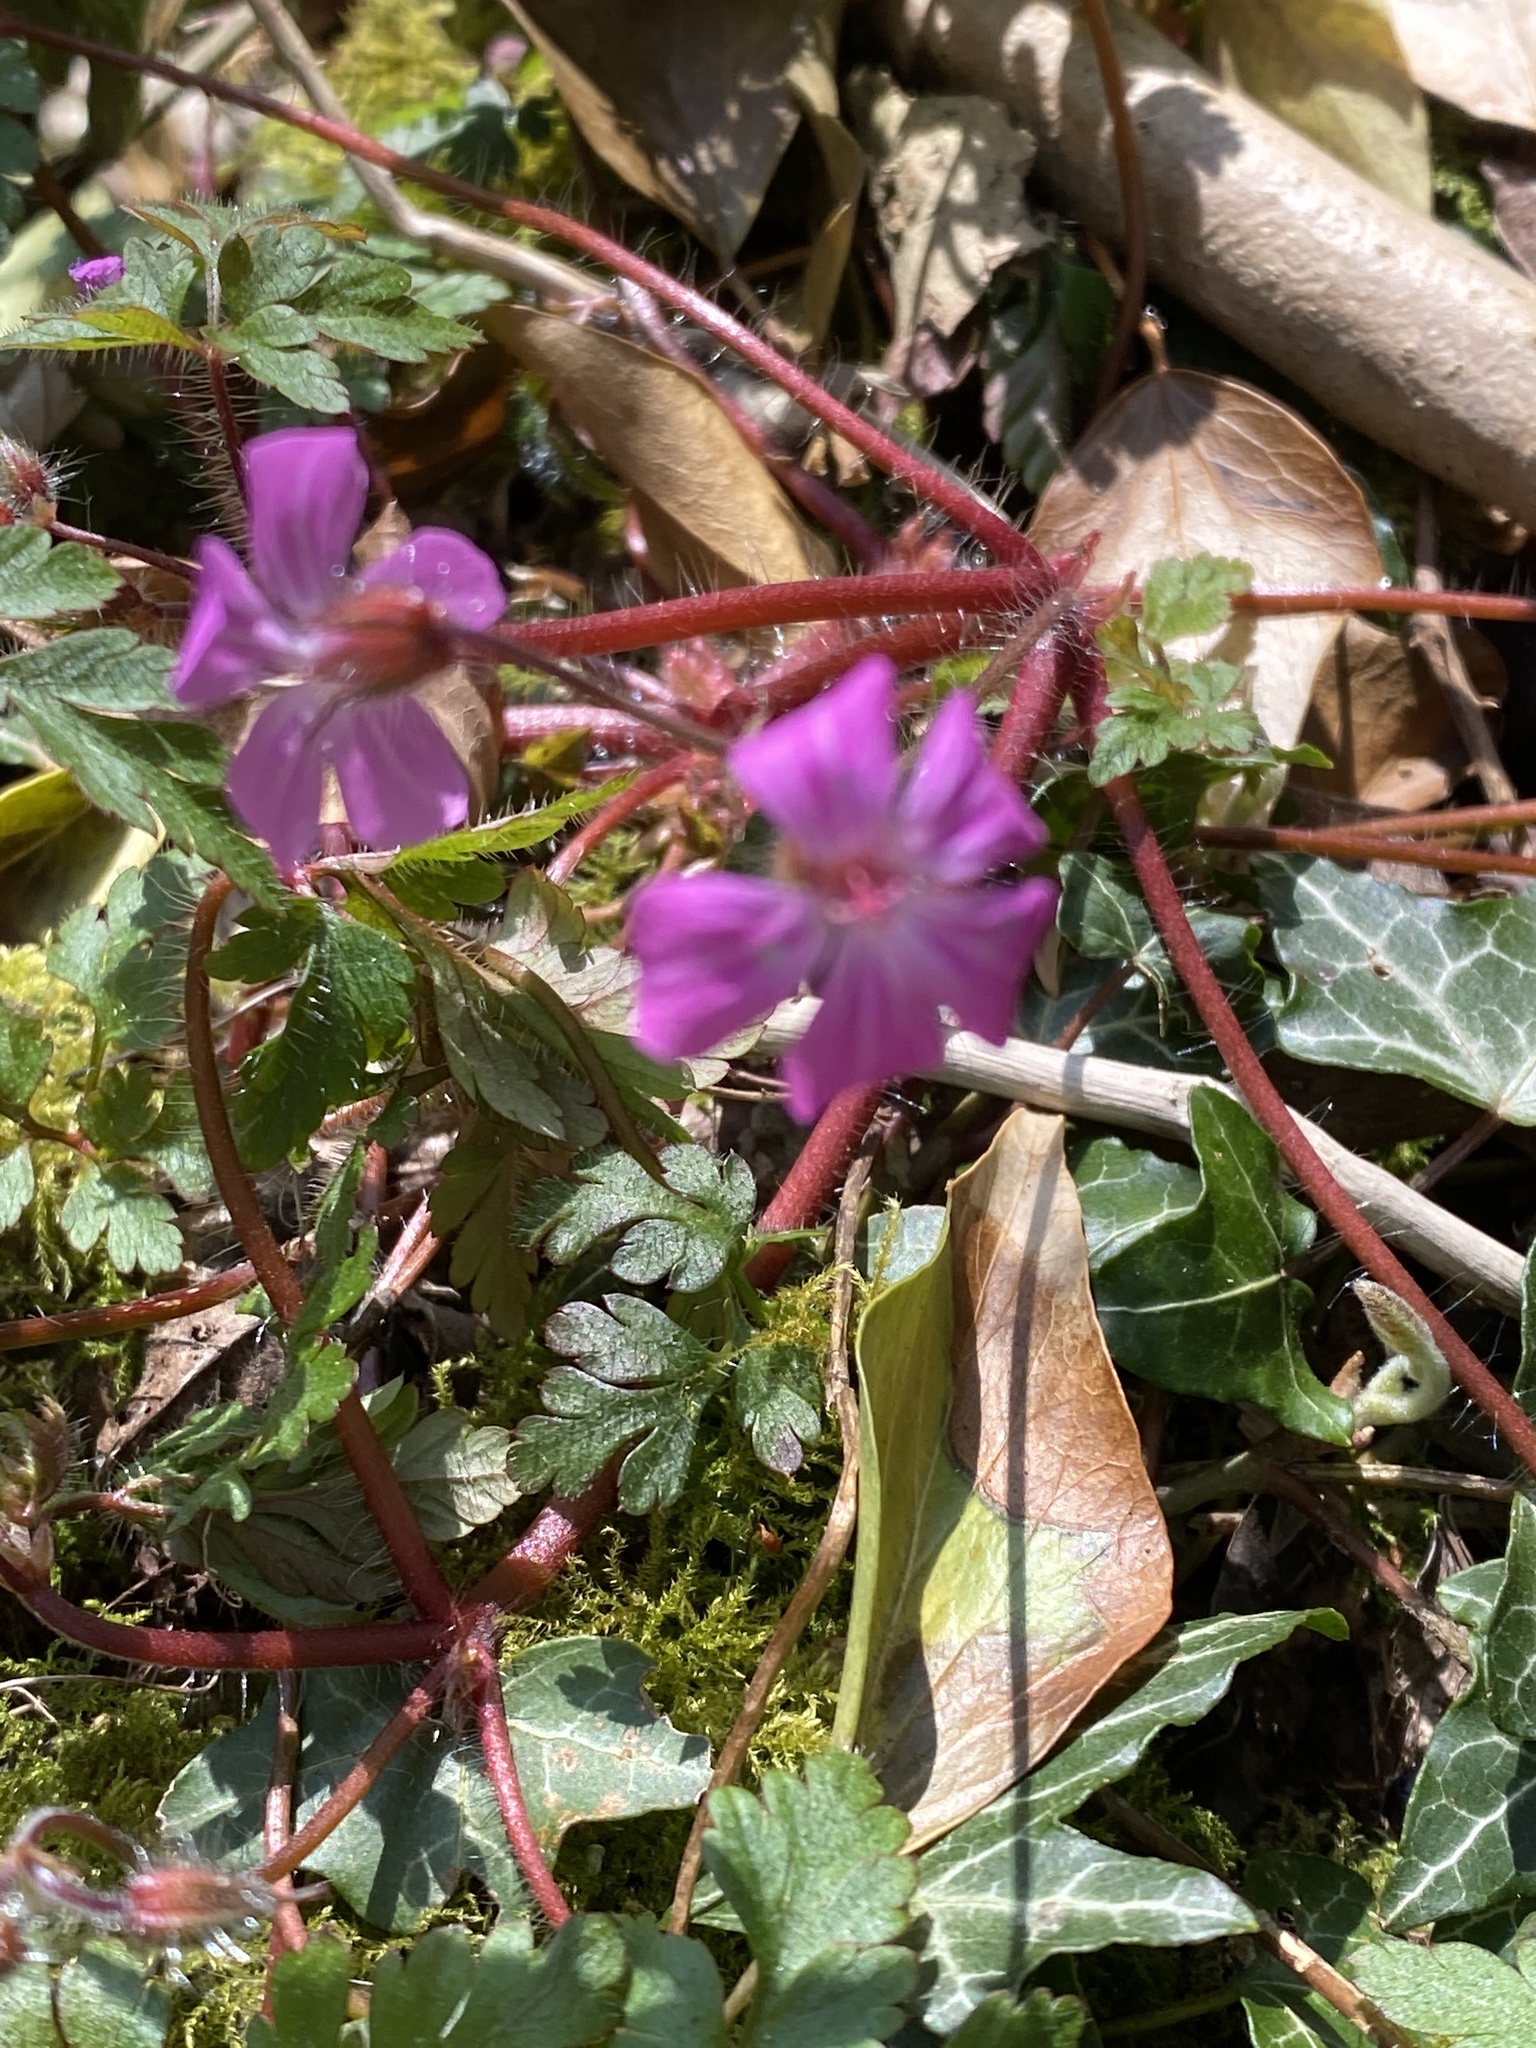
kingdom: Plantae
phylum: Tracheophyta
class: Magnoliopsida
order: Geraniales
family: Geraniaceae
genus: Geranium
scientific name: Geranium robertianum
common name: Herb-robert
